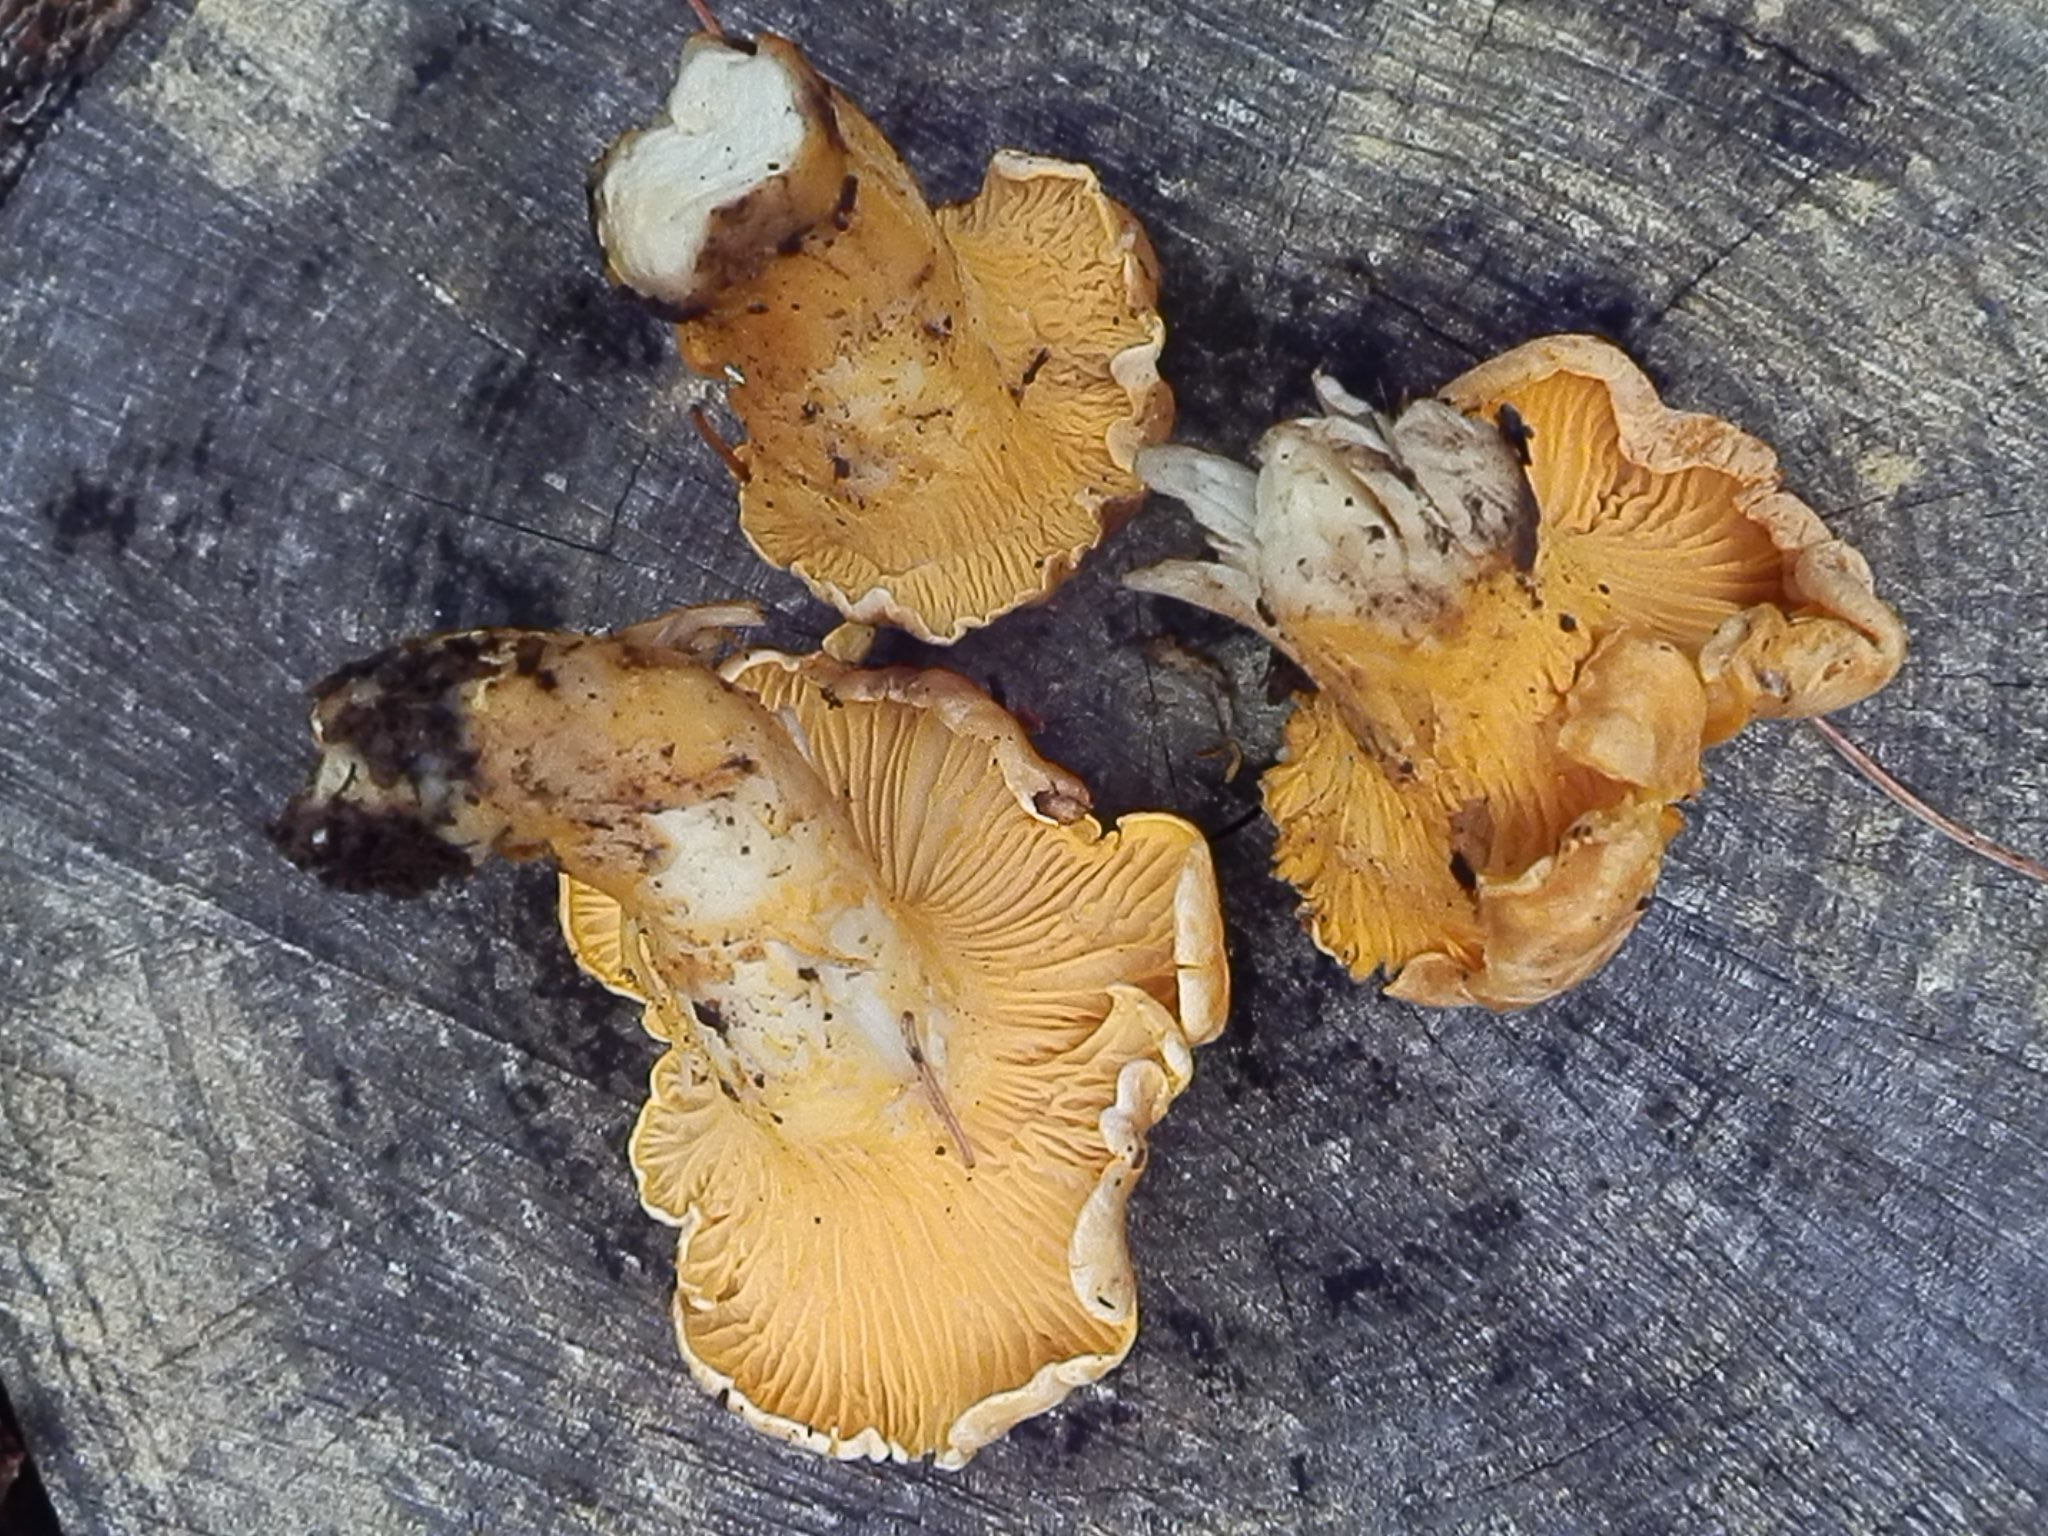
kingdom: Fungi
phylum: Basidiomycota
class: Agaricomycetes
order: Cantharellales
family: Hydnaceae
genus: Cantharellus
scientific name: Cantharellus roseocanus
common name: Rainbow chanterelle
